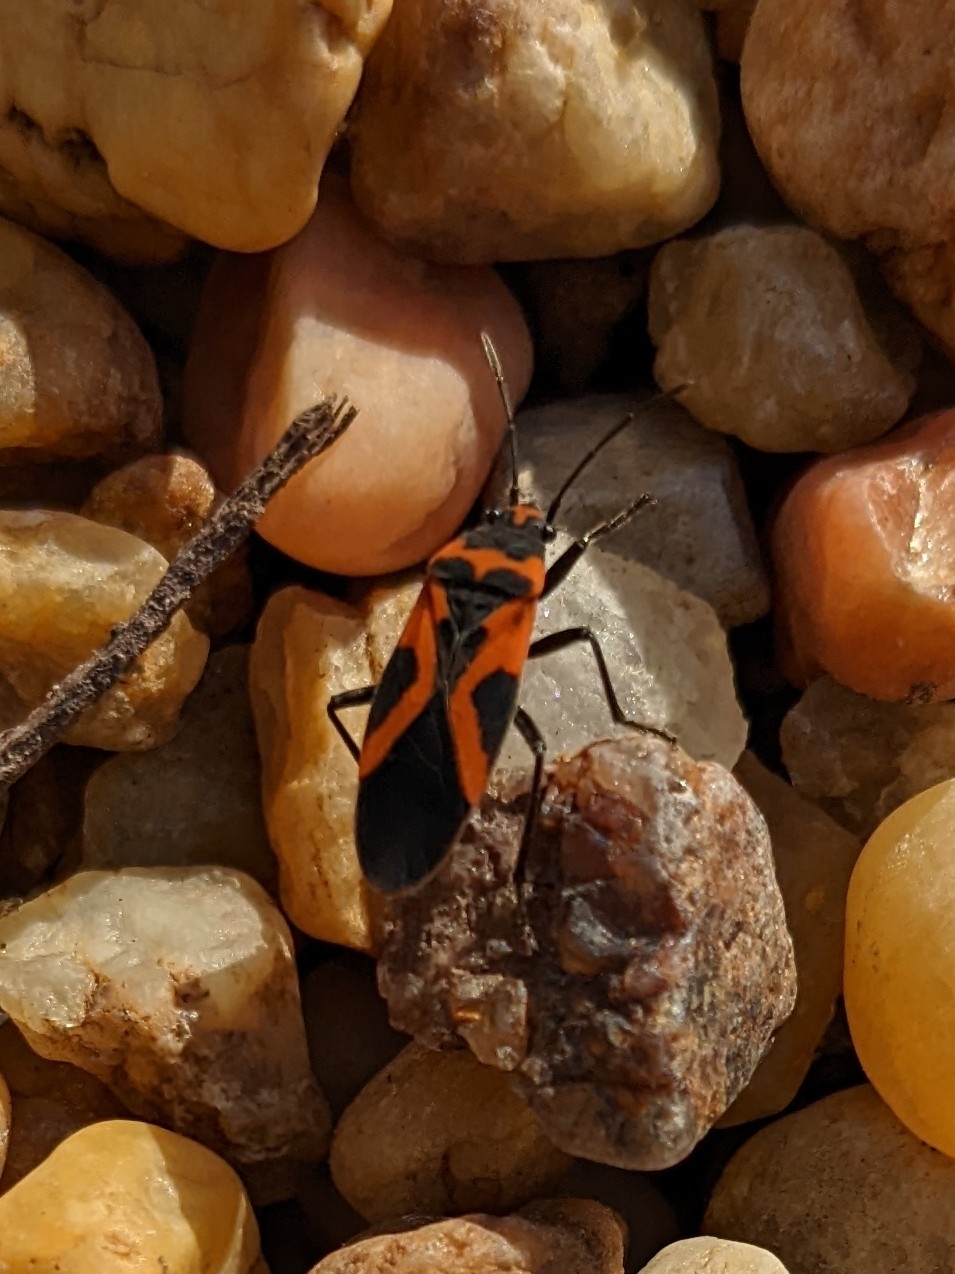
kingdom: Animalia
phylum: Arthropoda
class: Insecta
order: Hemiptera
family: Lygaeidae
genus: Lygaeus
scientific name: Lygaeus turcicus
